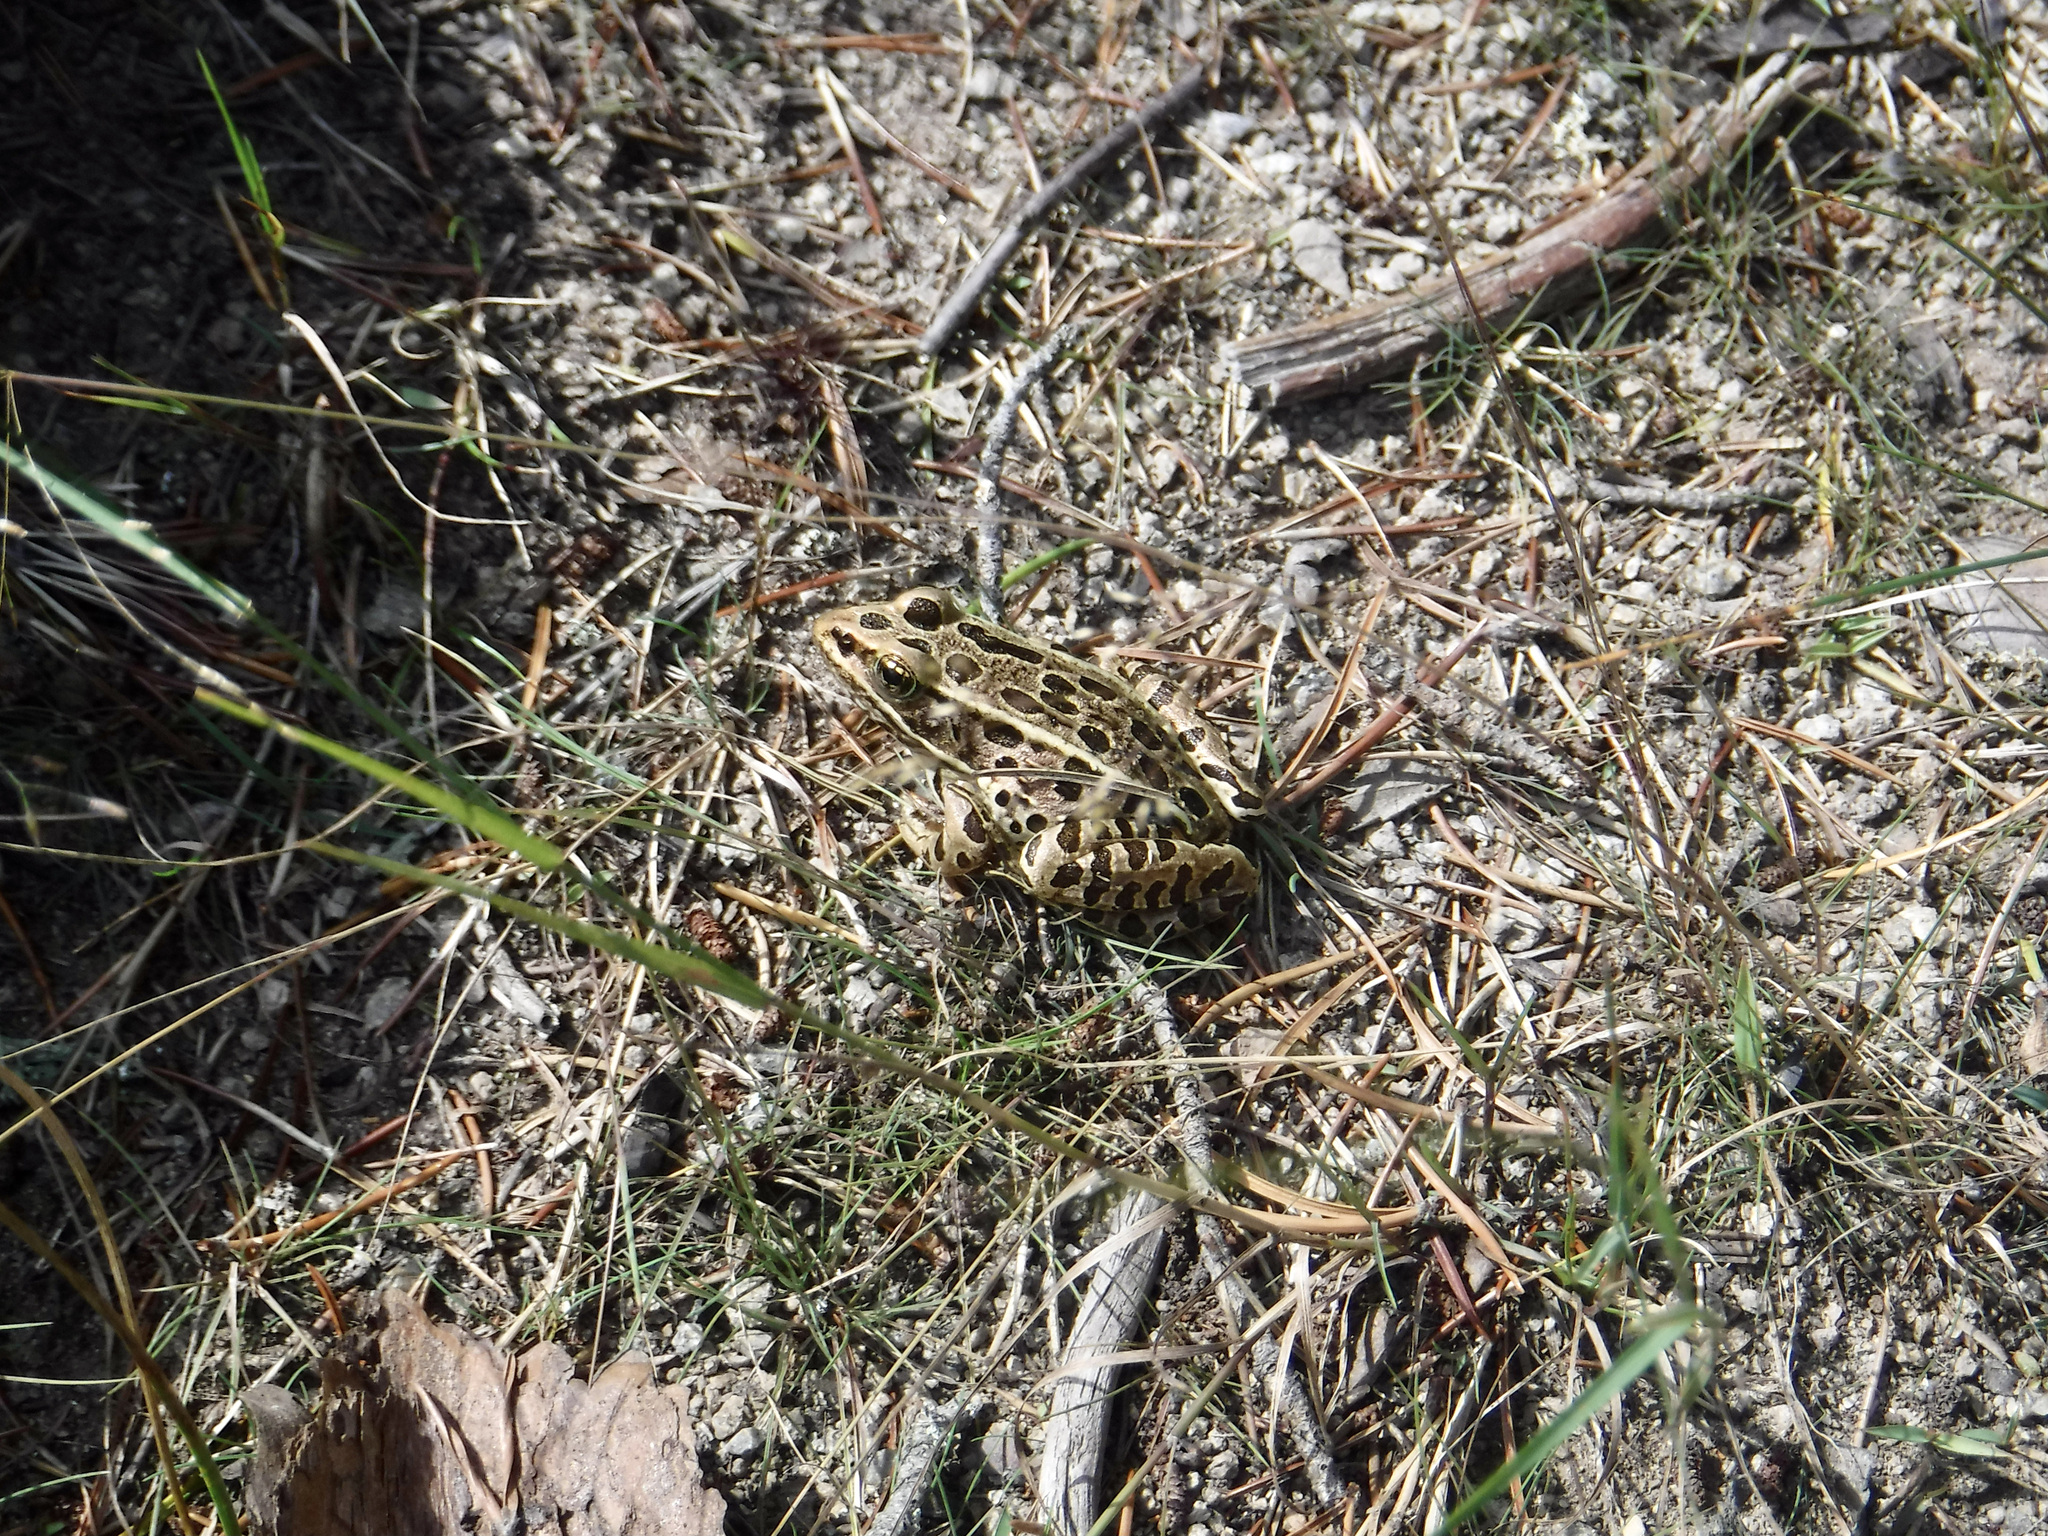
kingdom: Animalia
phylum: Chordata
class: Amphibia
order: Anura
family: Ranidae
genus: Lithobates
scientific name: Lithobates pipiens
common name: Northern leopard frog
